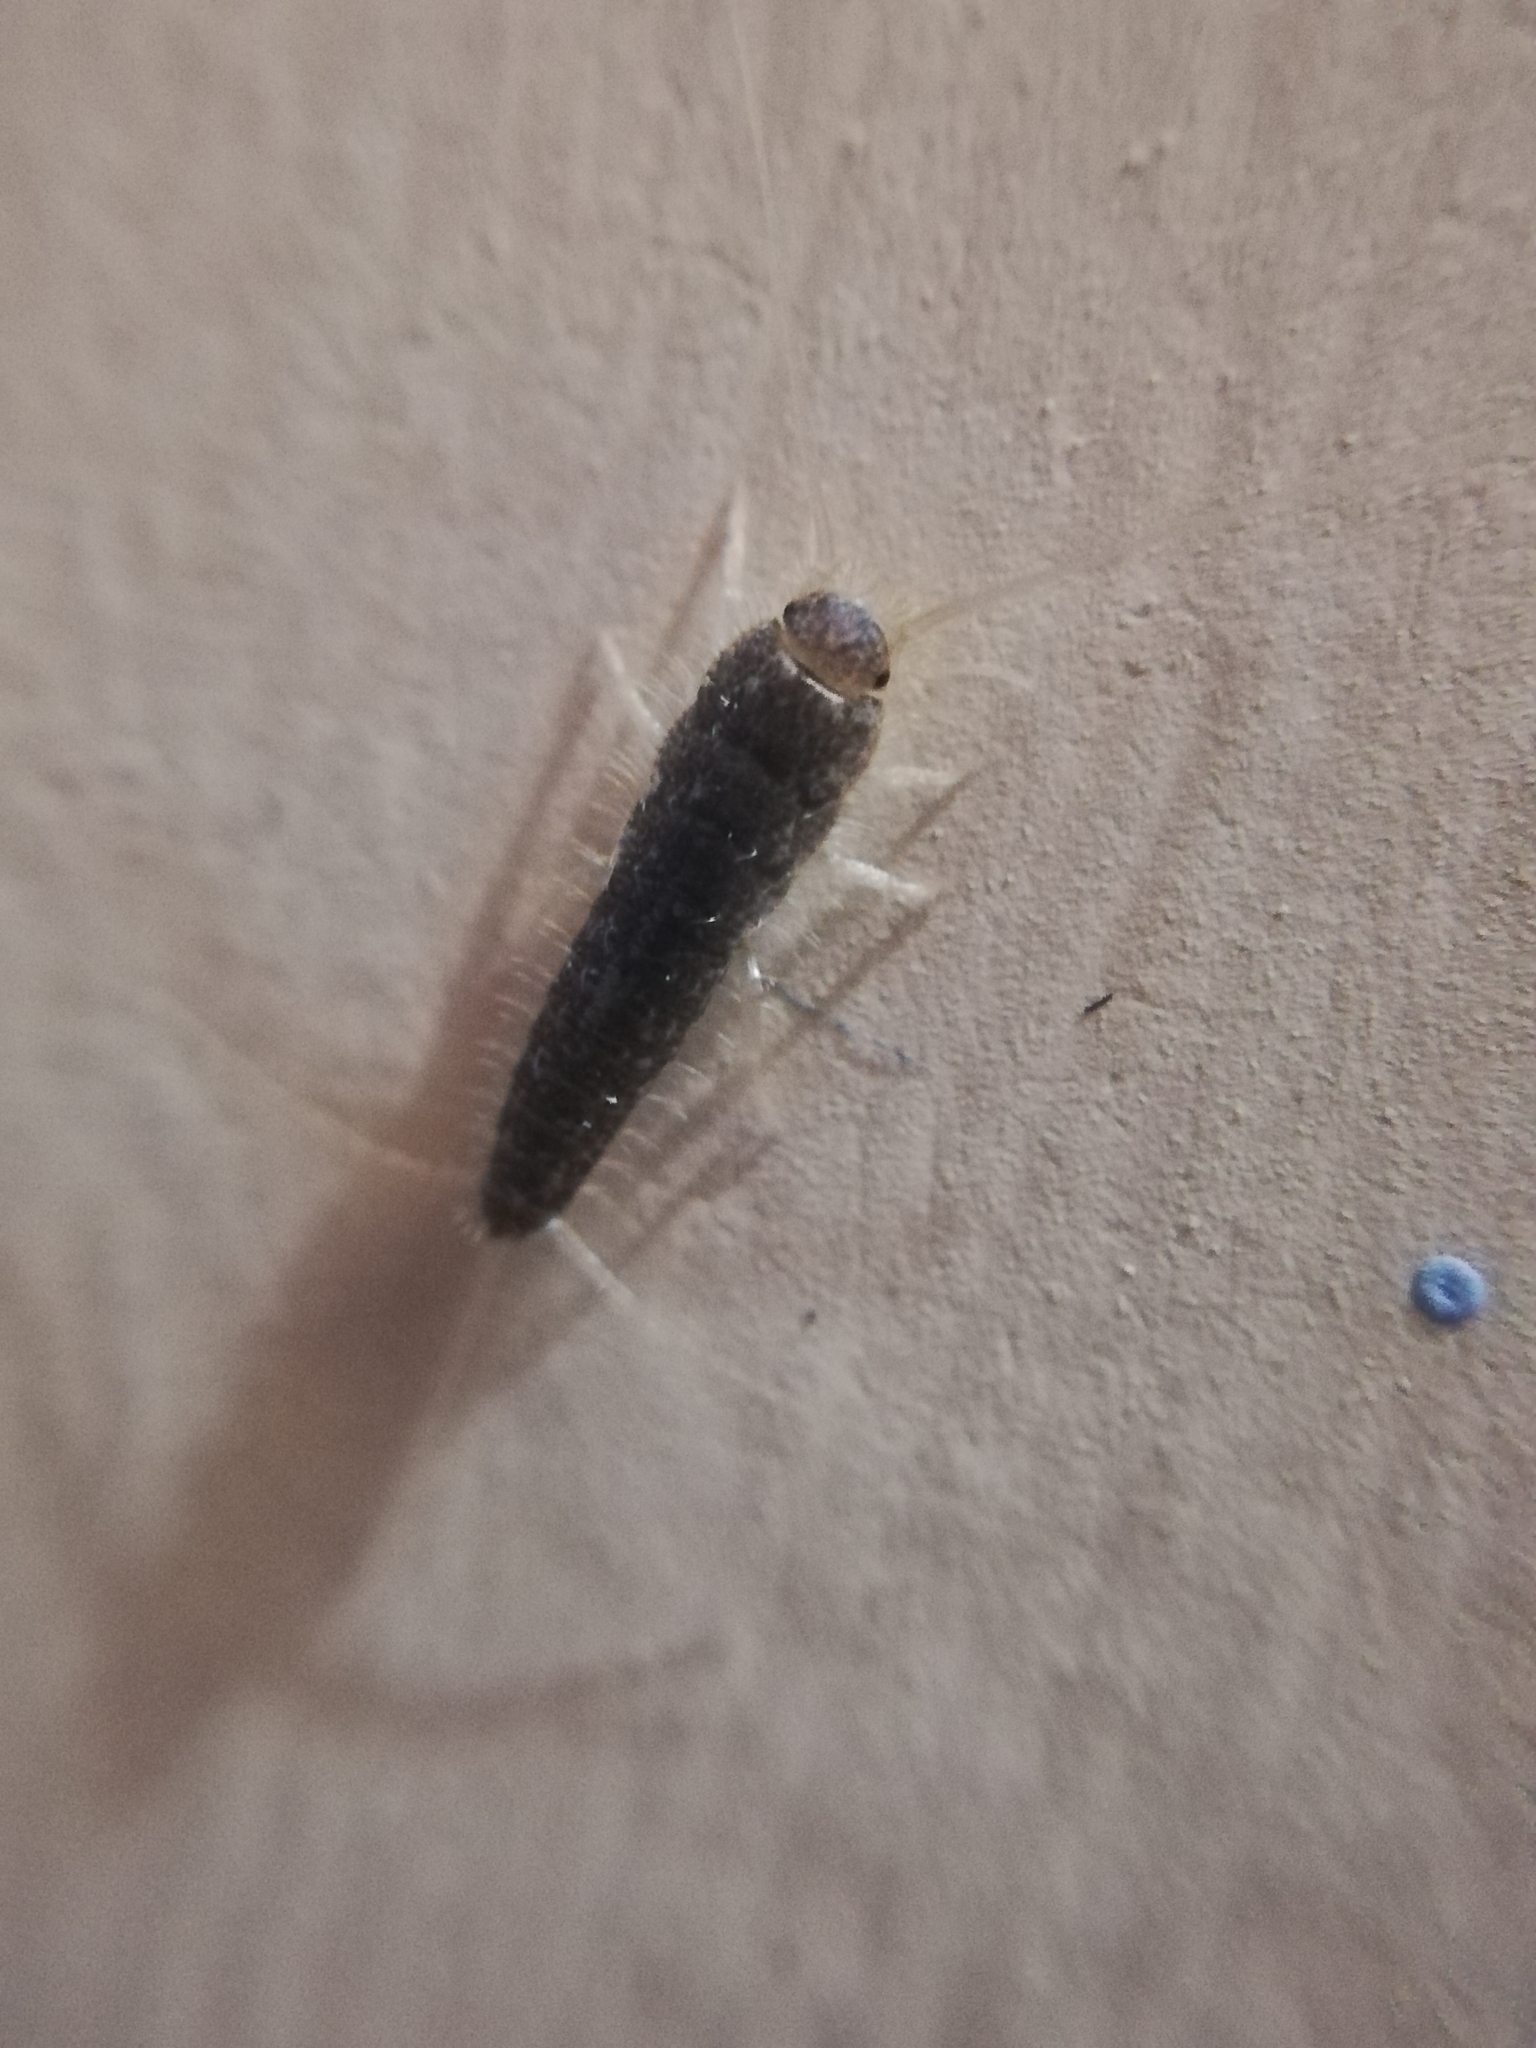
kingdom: Animalia
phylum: Arthropoda
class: Insecta
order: Zygentoma
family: Lepismatidae
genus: Ctenolepisma
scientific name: Ctenolepisma longicaudatum
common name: Silverfish
